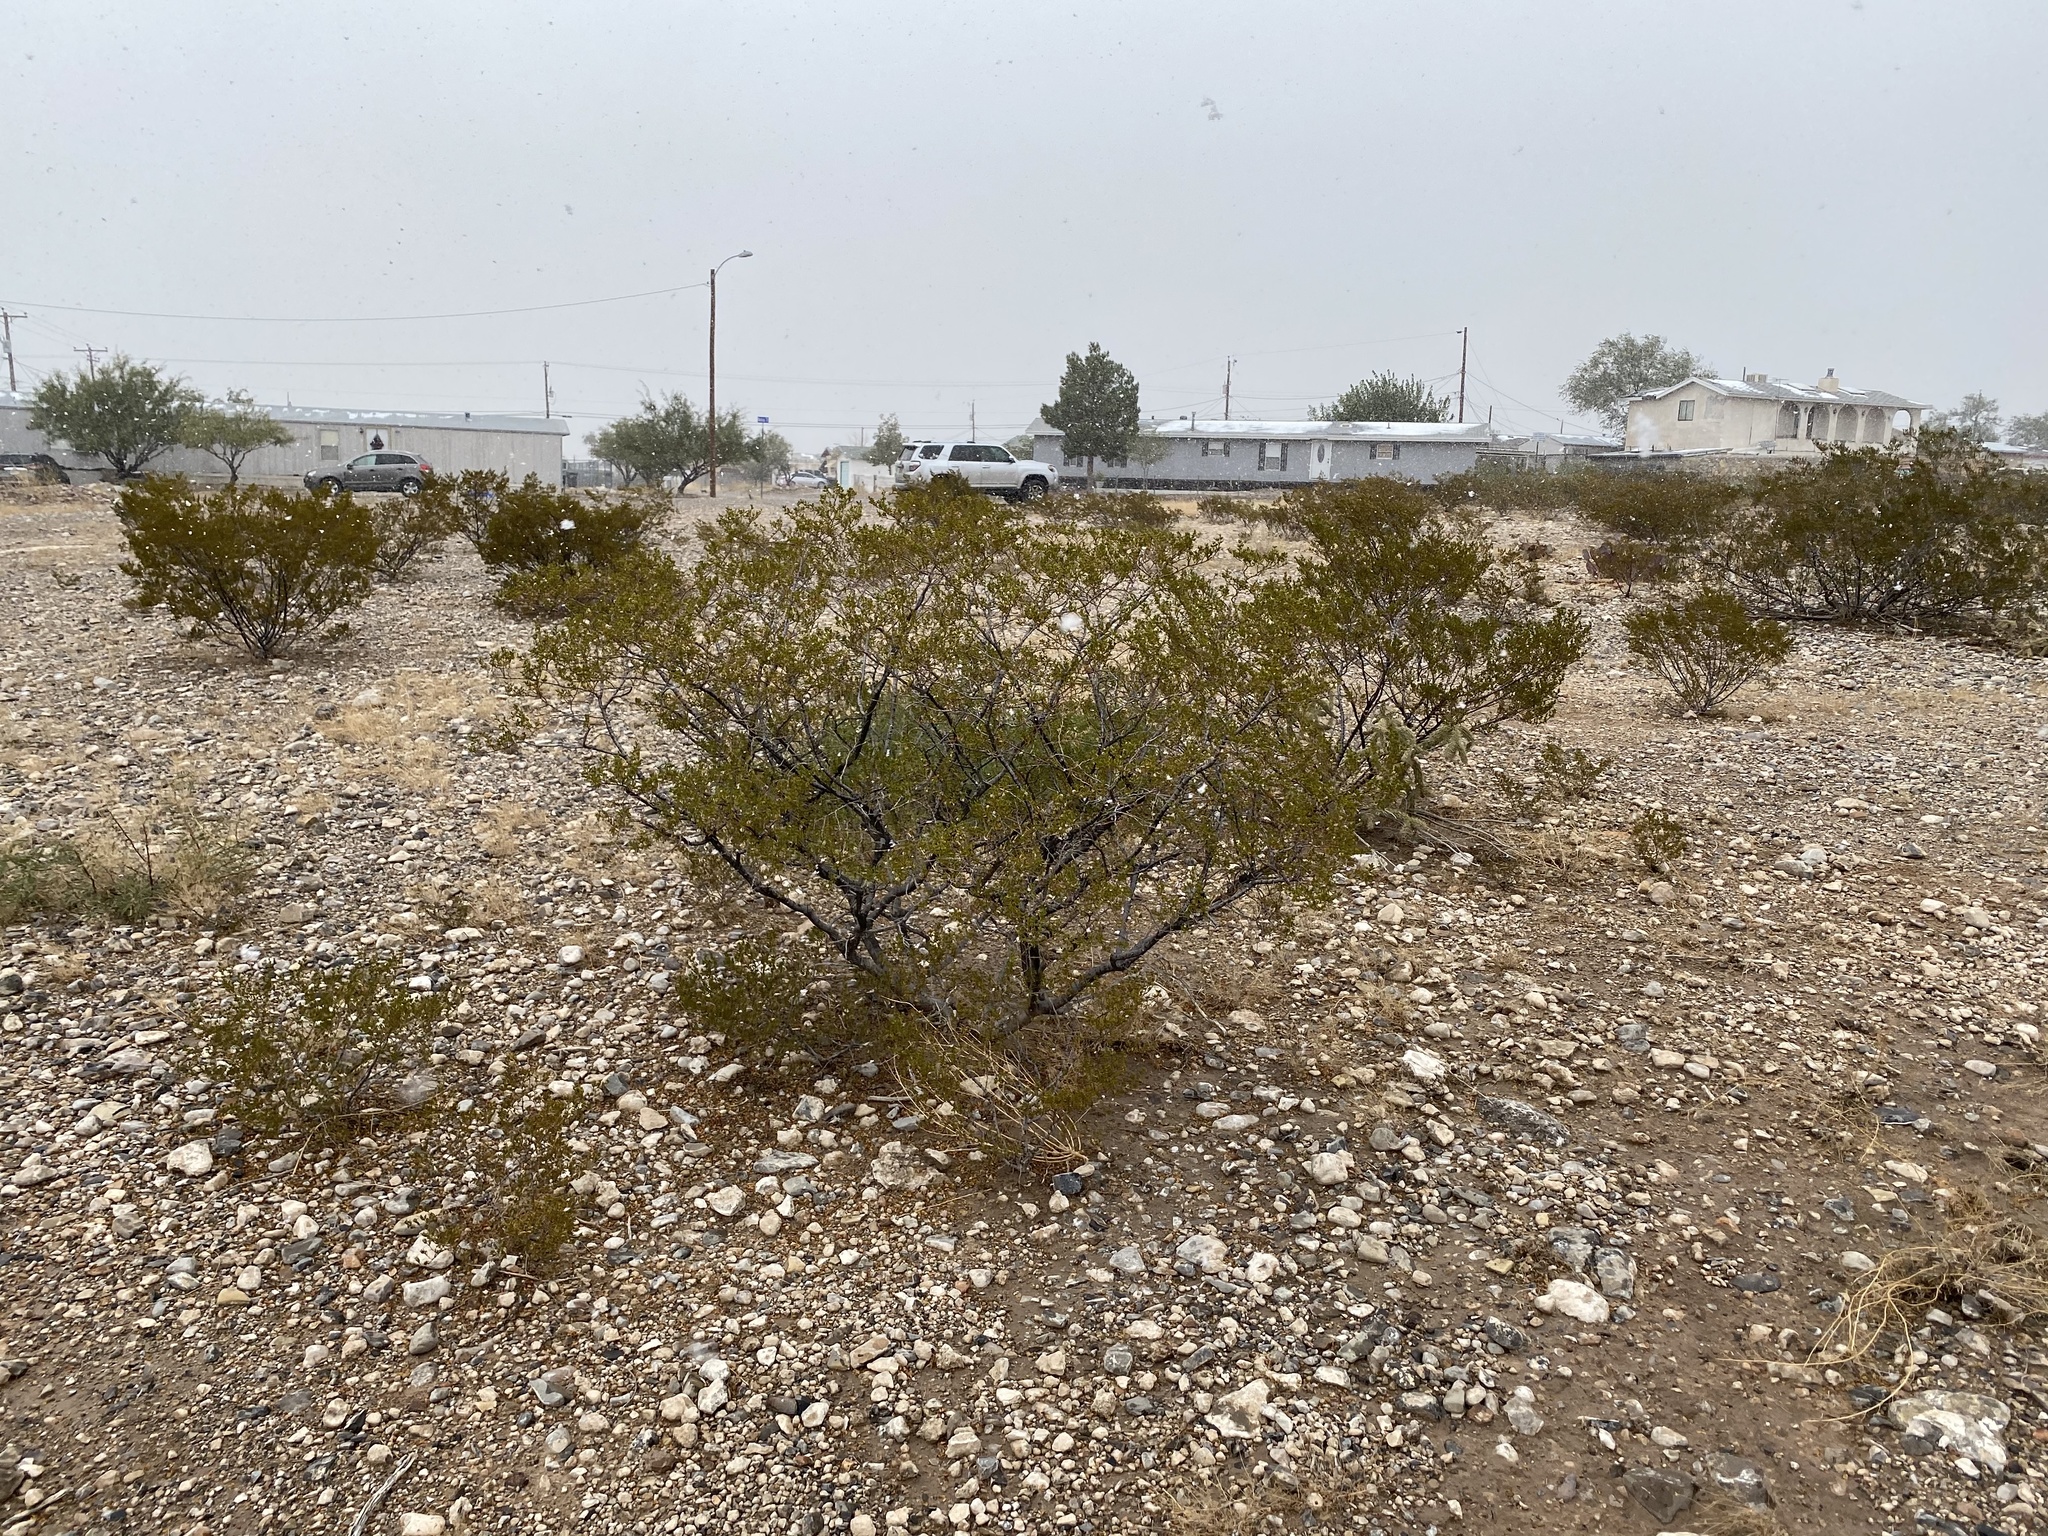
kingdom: Plantae
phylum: Tracheophyta
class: Magnoliopsida
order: Zygophyllales
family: Zygophyllaceae
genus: Larrea
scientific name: Larrea tridentata
